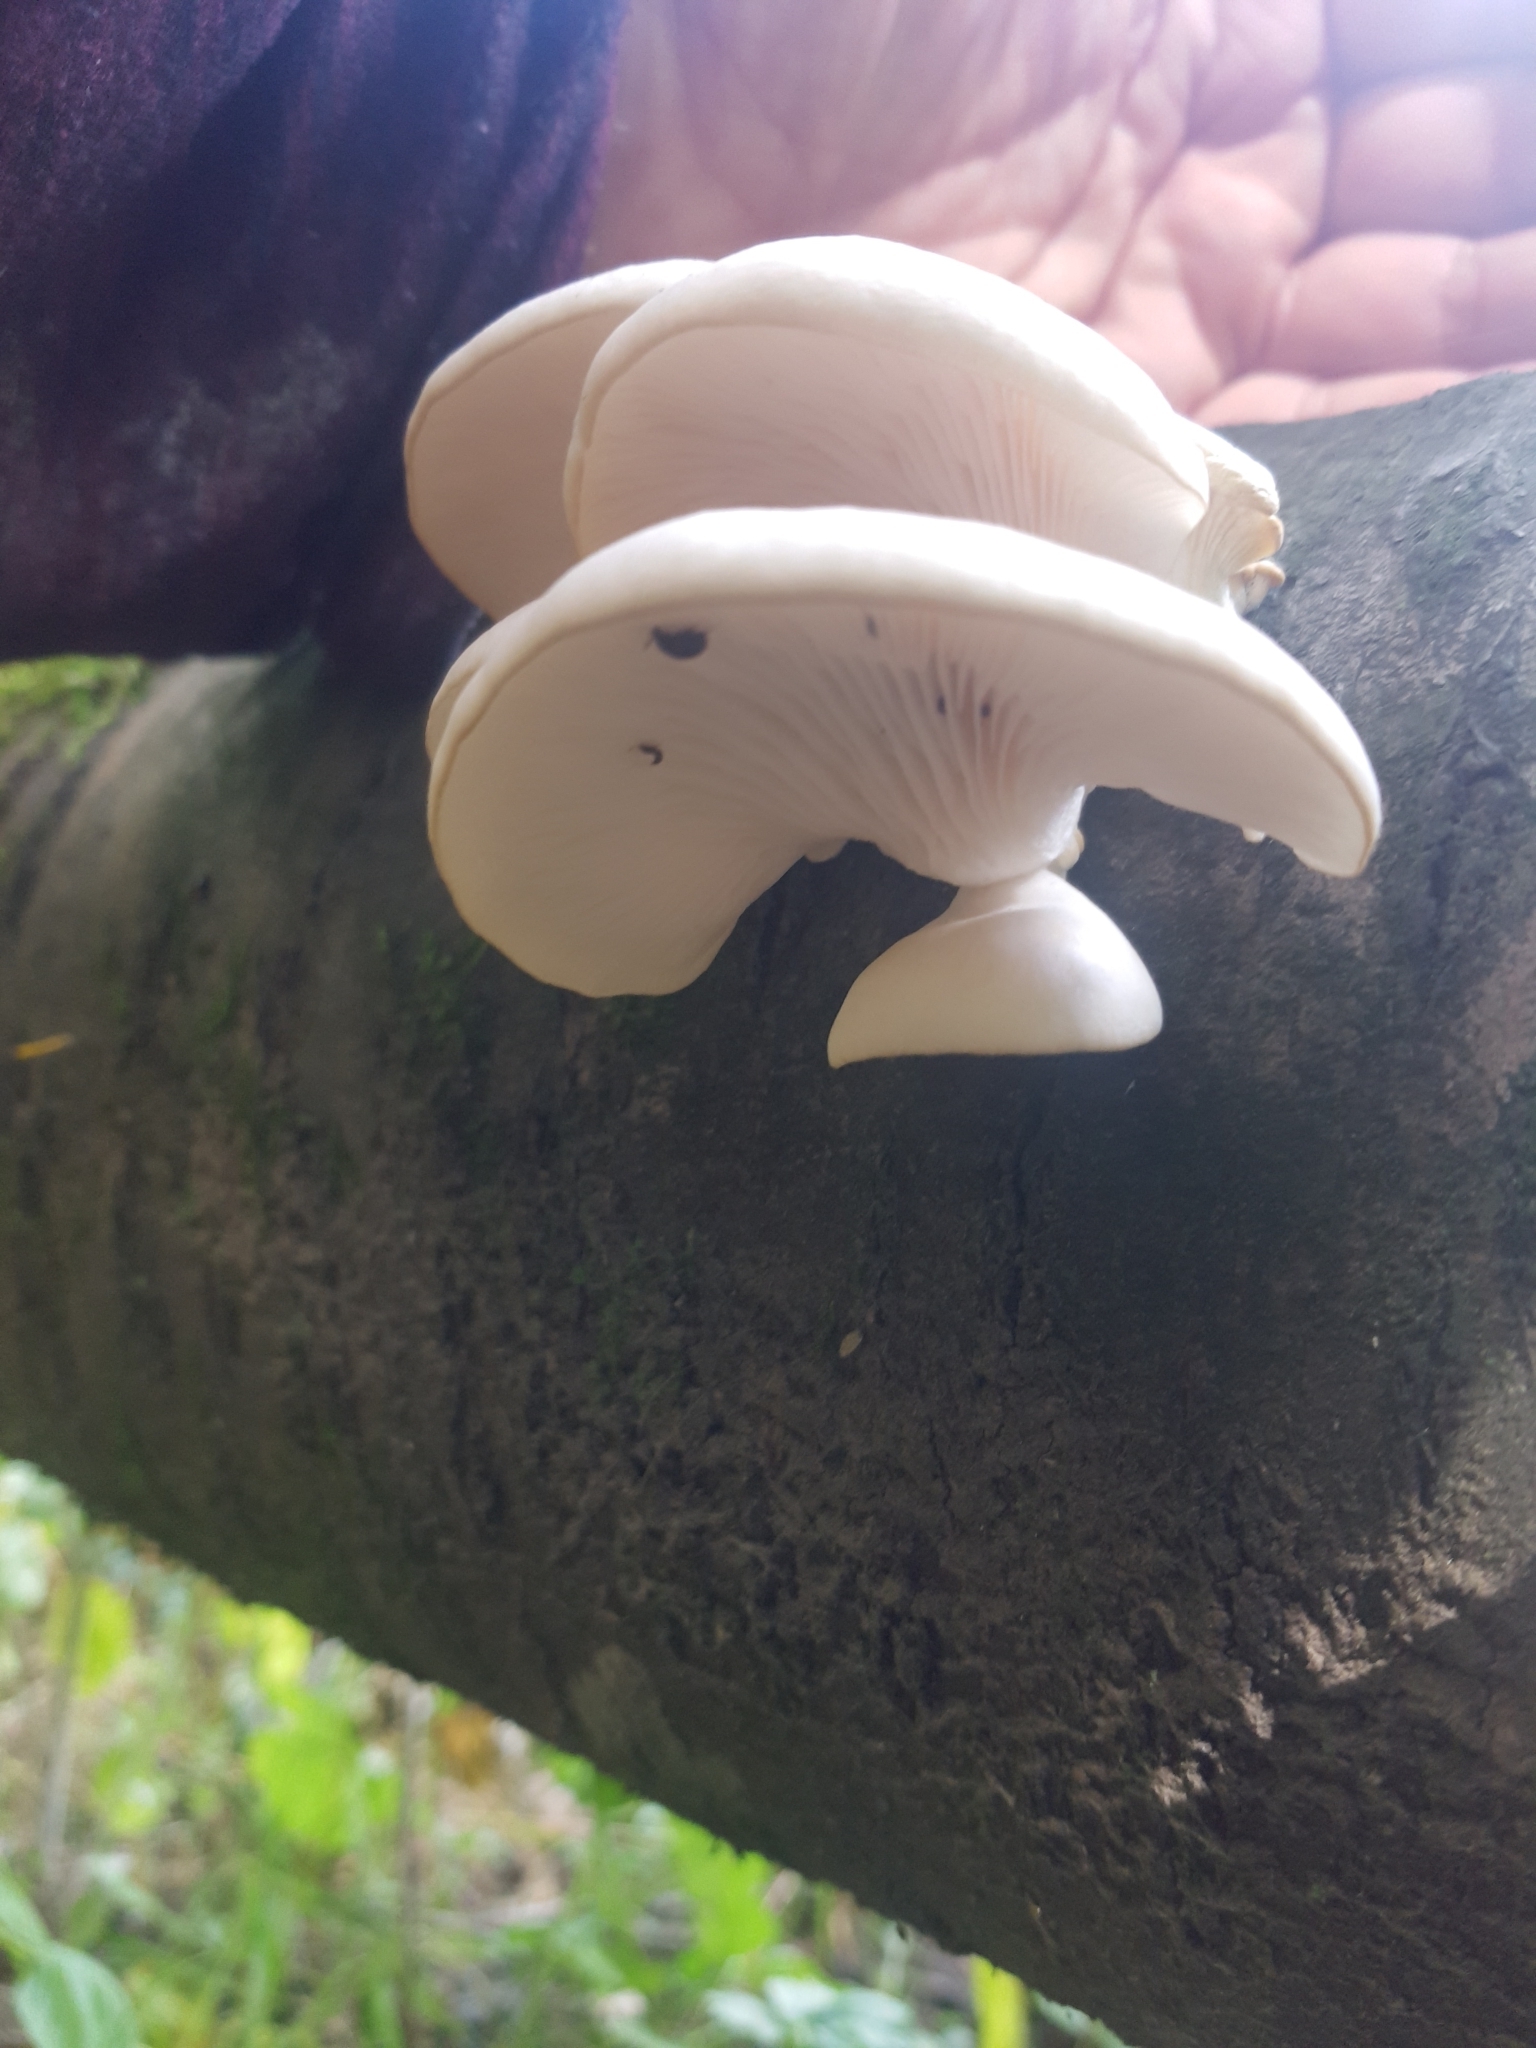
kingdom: Fungi
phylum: Basidiomycota
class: Agaricomycetes
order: Agaricales
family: Pleurotaceae
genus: Pleurotus
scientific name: Pleurotus pulmonarius
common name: Pale oyster
